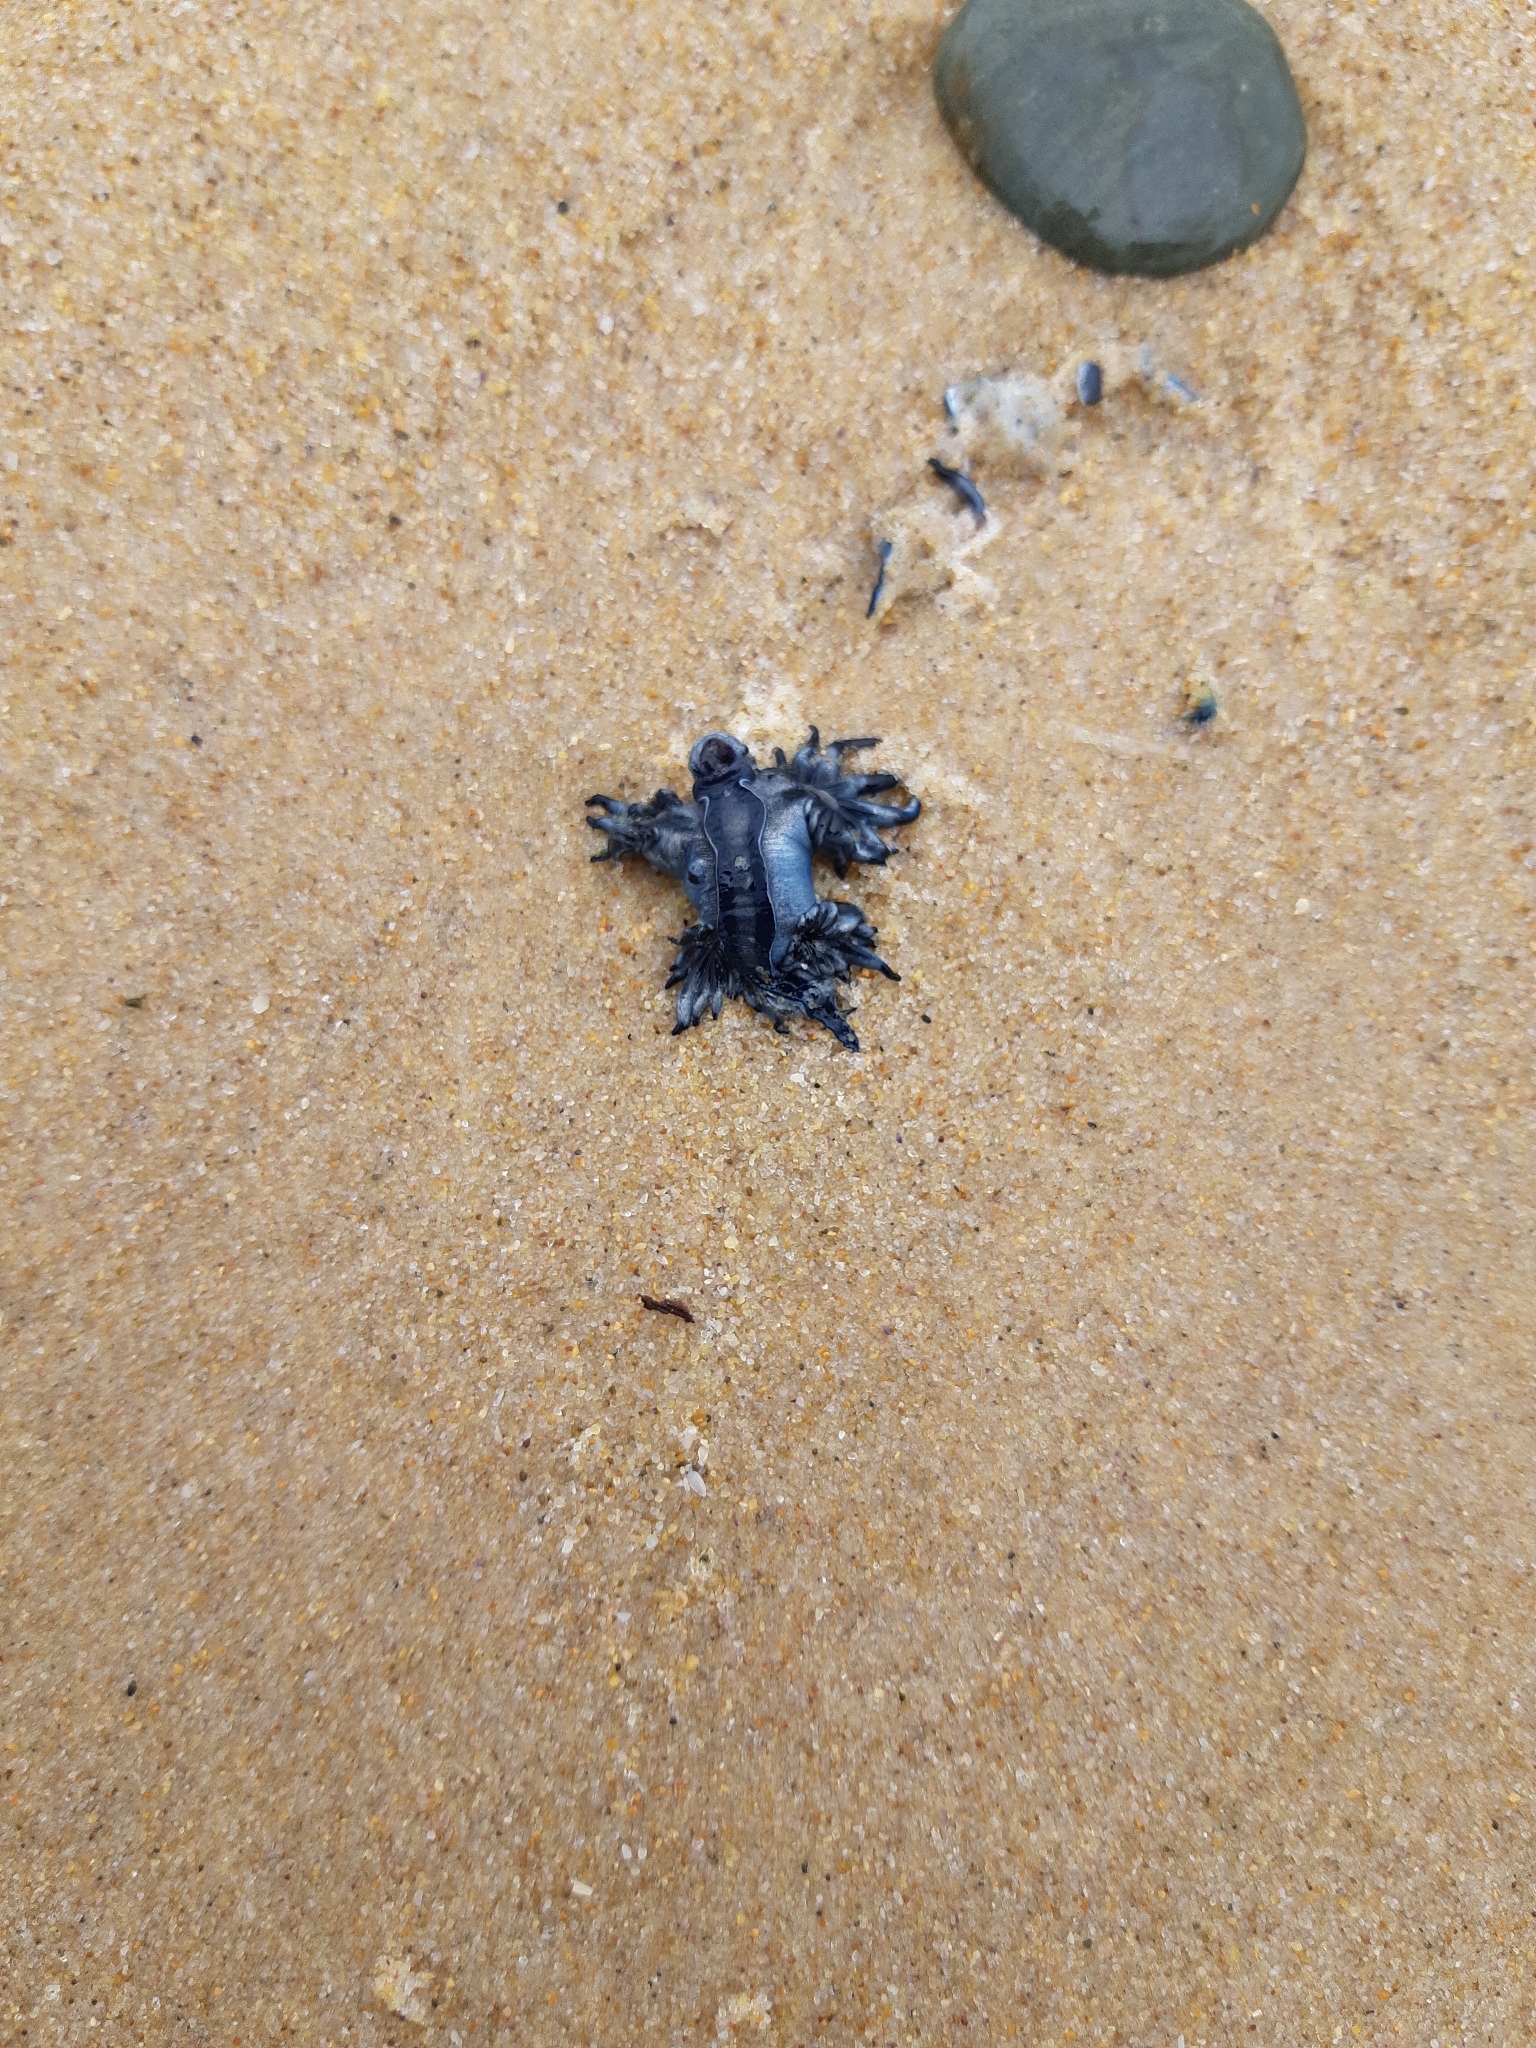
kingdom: Animalia
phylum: Mollusca
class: Gastropoda
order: Nudibranchia
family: Glaucidae
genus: Glaucus
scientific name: Glaucus atlanticus
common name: Purple ocean slug
